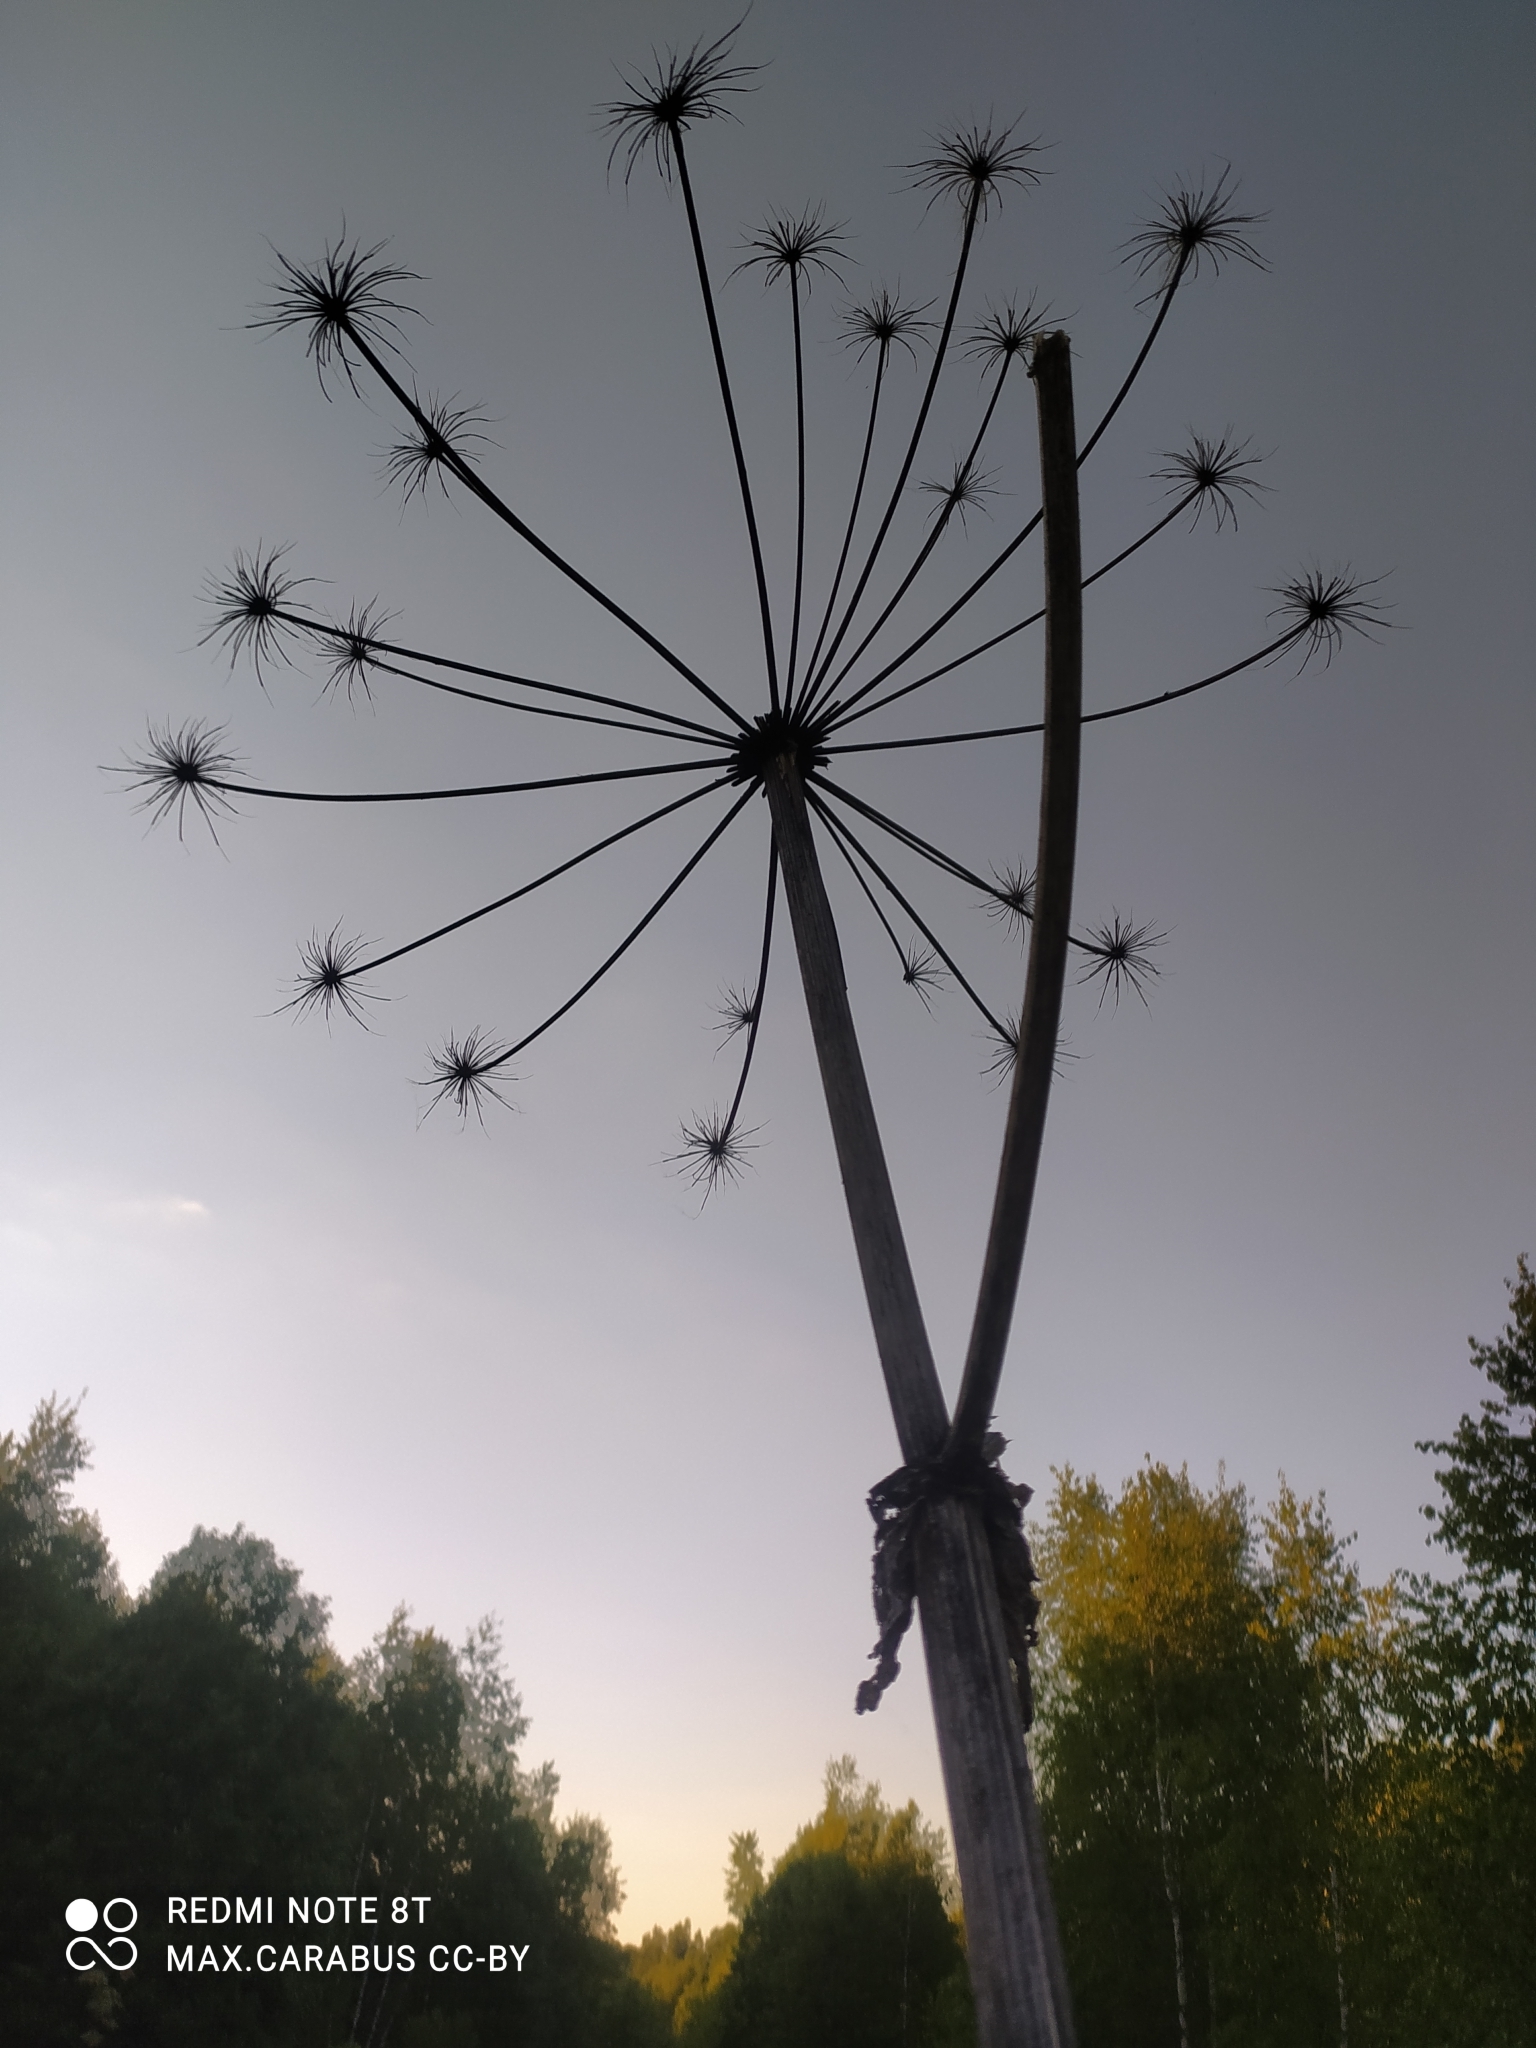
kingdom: Plantae
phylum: Tracheophyta
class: Magnoliopsida
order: Apiales
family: Apiaceae
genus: Heracleum
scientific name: Heracleum sosnowskyi
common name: Sosnowsky's hogweed
